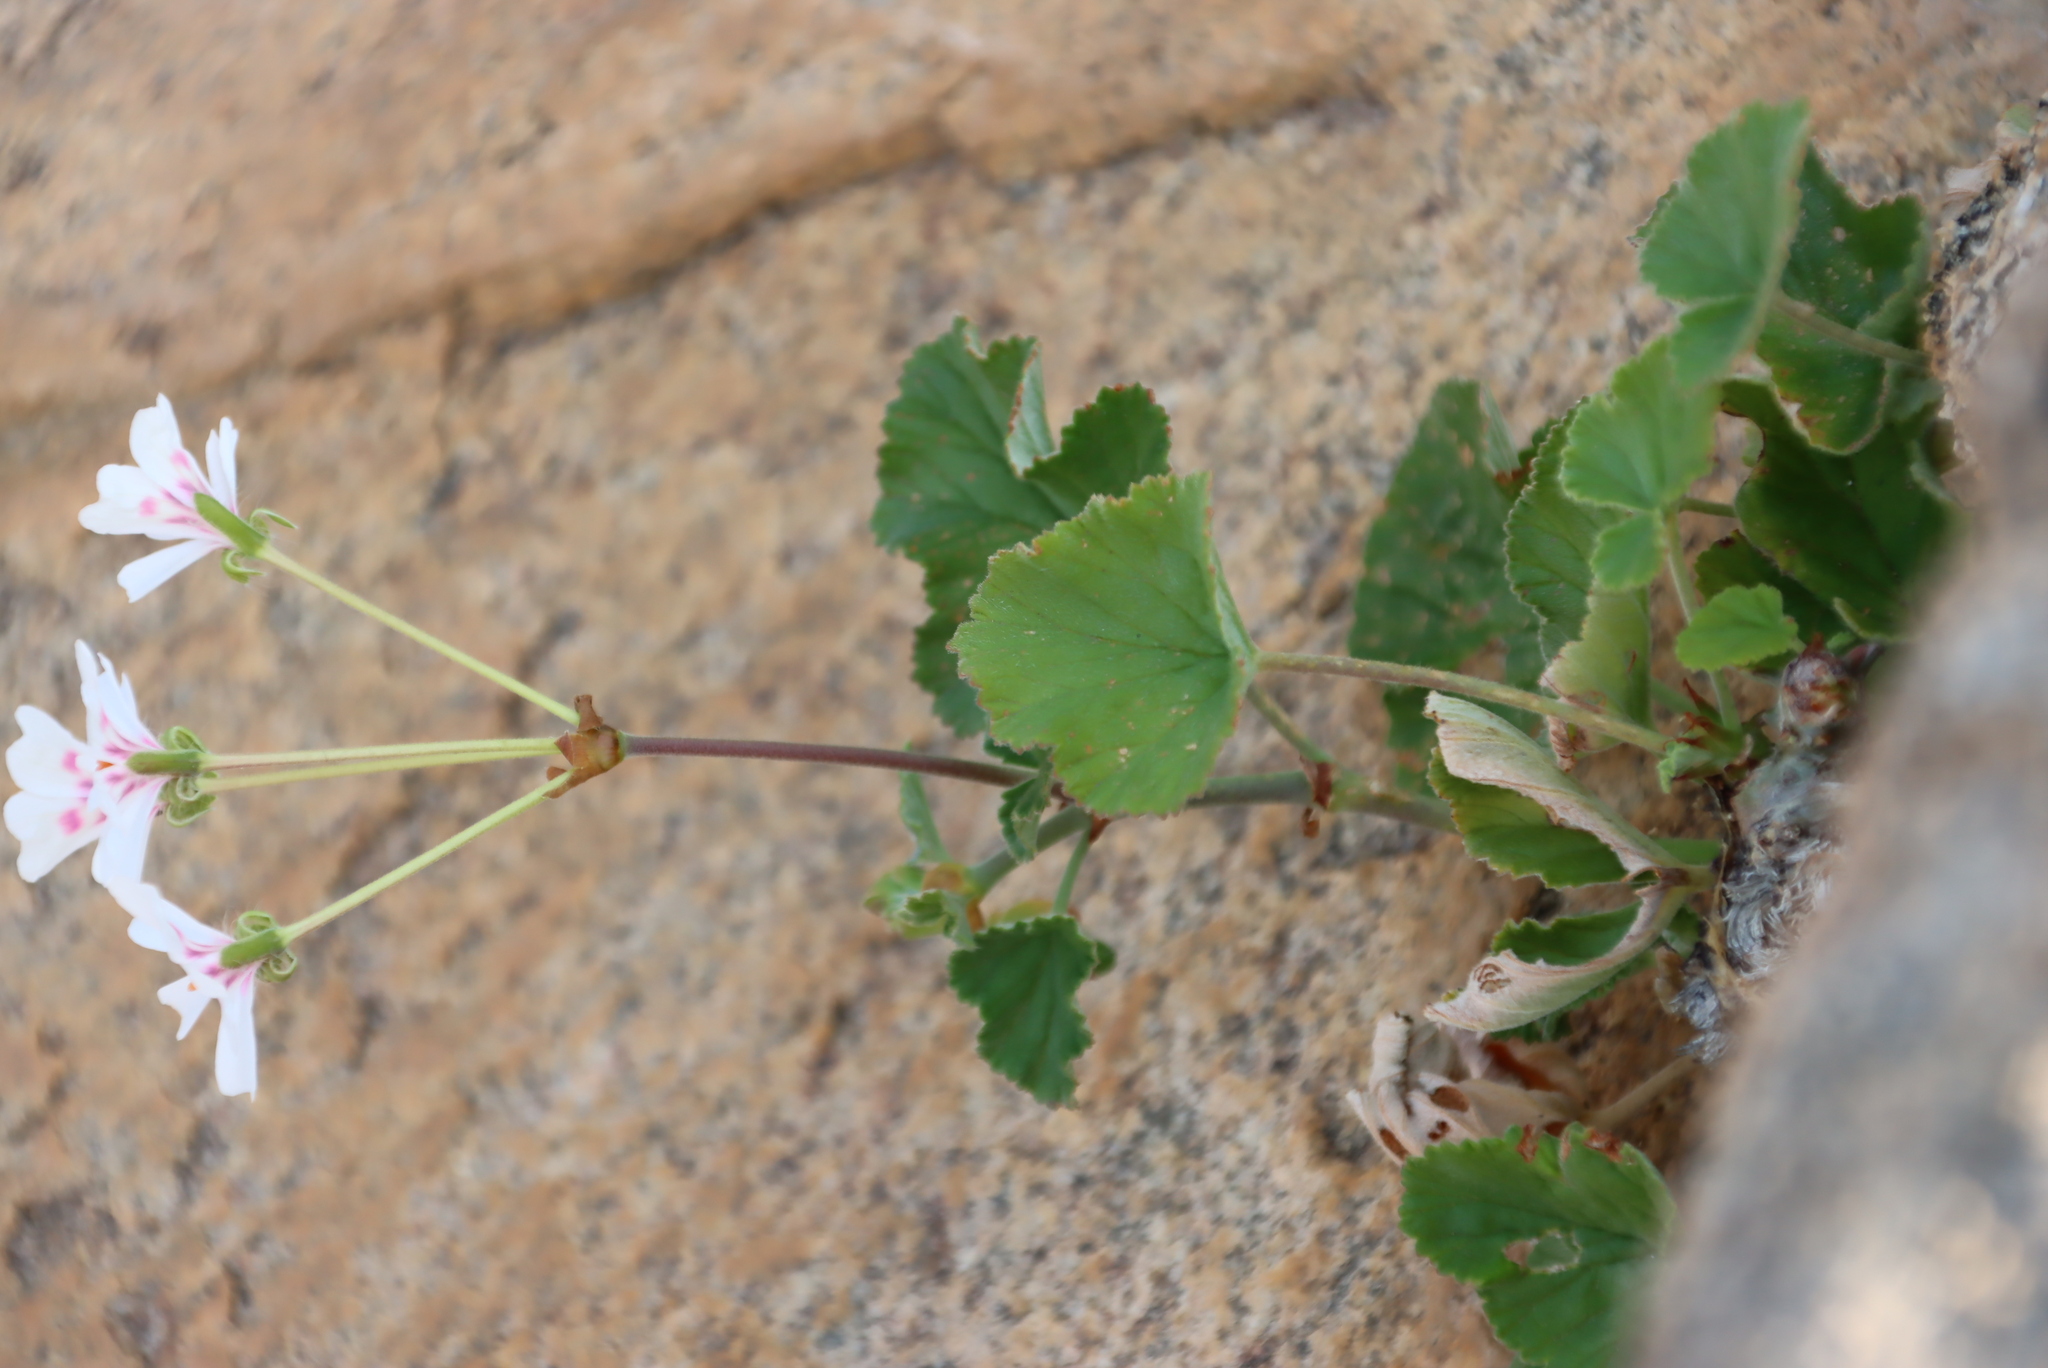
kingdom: Plantae
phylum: Tracheophyta
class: Magnoliopsida
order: Geraniales
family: Geraniaceae
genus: Pelargonium
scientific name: Pelargonium echinatum
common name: Cactus geranium
